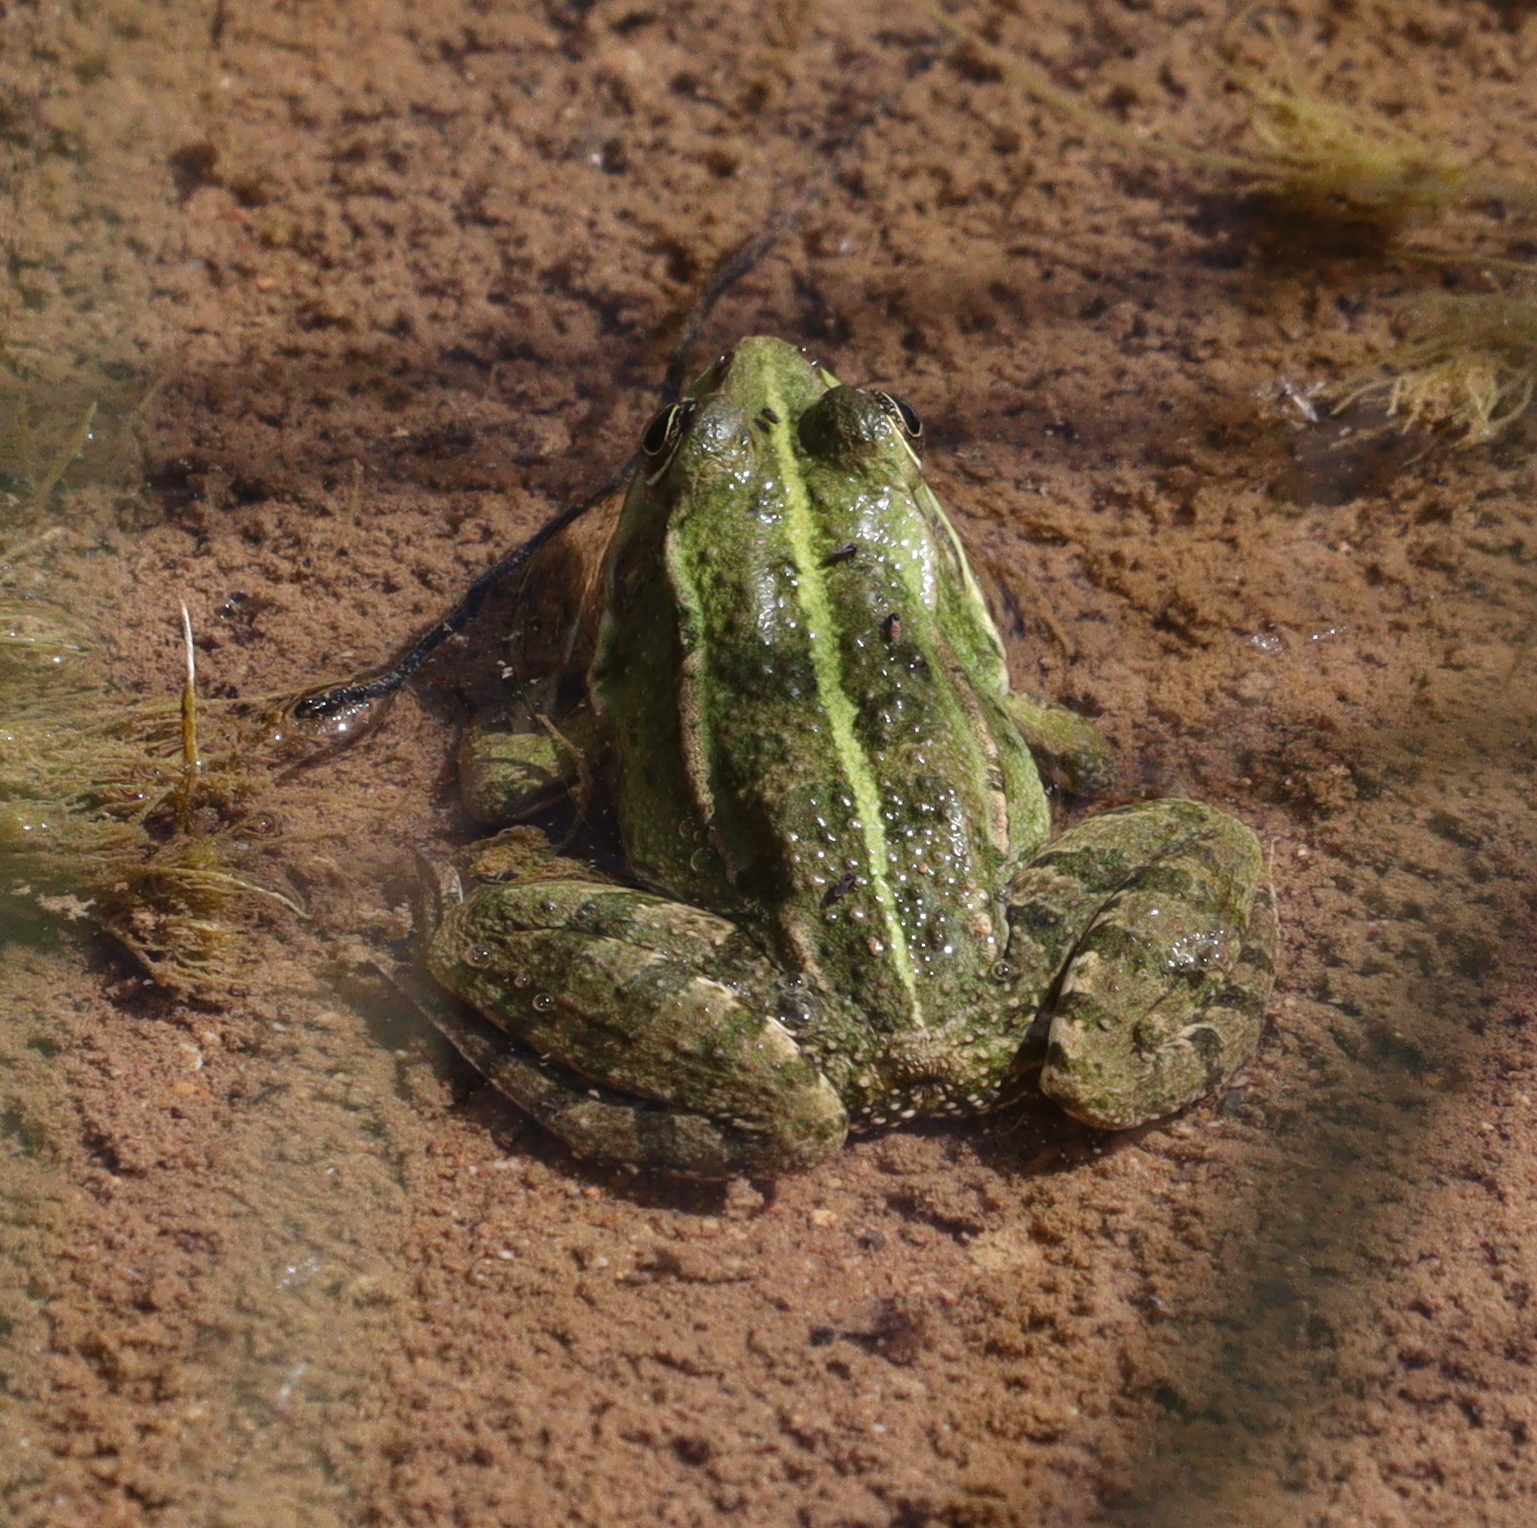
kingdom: Animalia
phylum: Chordata
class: Amphibia
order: Anura
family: Ranidae
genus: Pelophylax
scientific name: Pelophylax ridibundus
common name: Marsh frog
